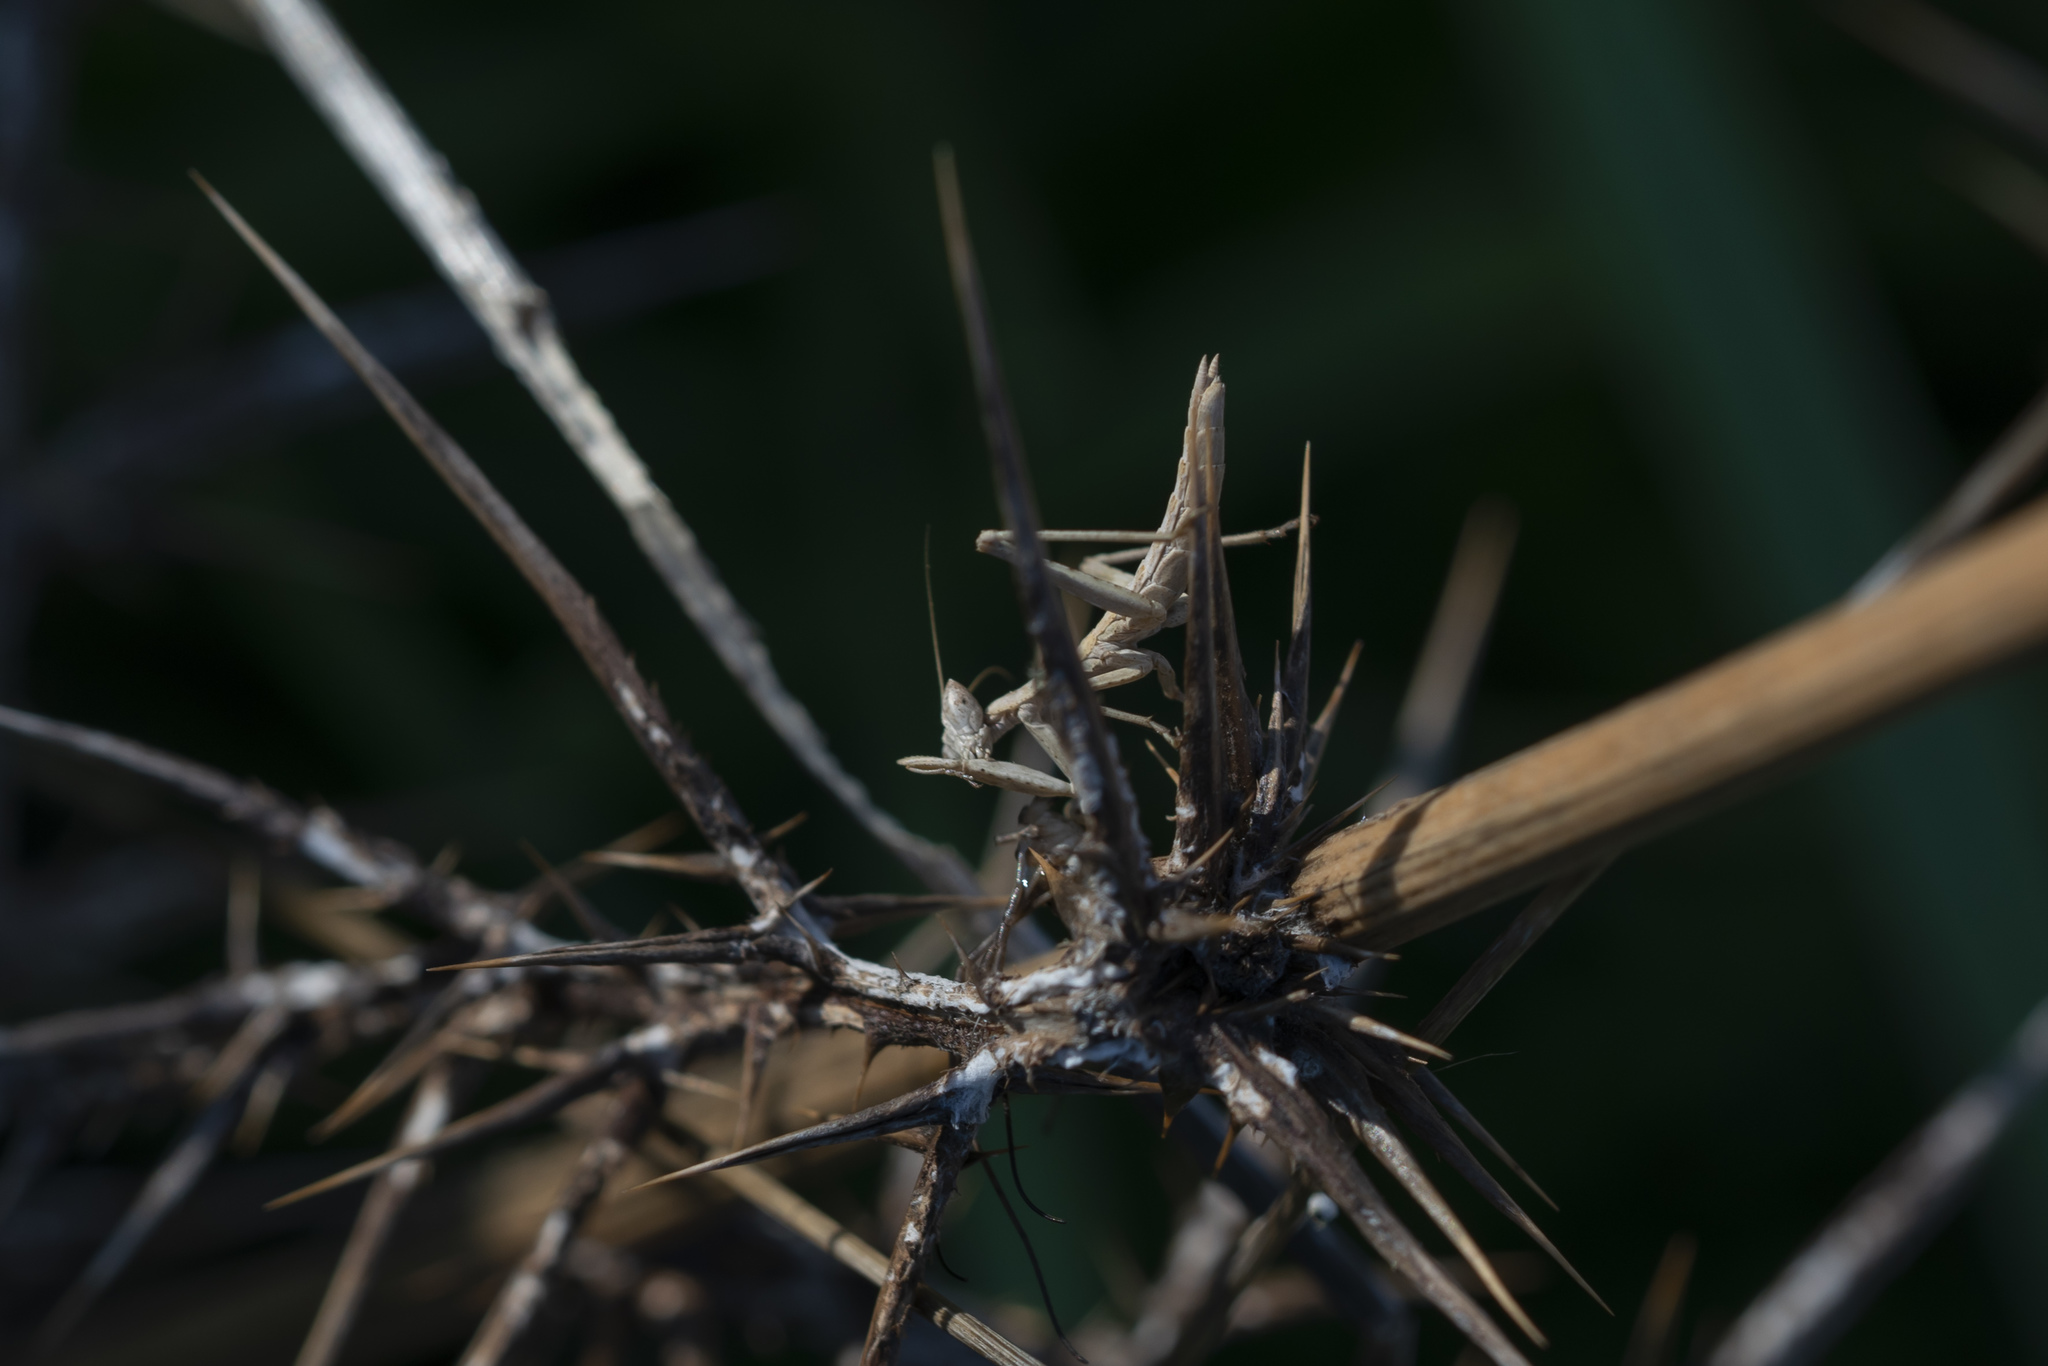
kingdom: Animalia
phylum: Arthropoda
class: Insecta
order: Mantodea
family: Amelidae
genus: Ameles
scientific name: Ameles heldreichi
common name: Heldreich's dwarf mantis
